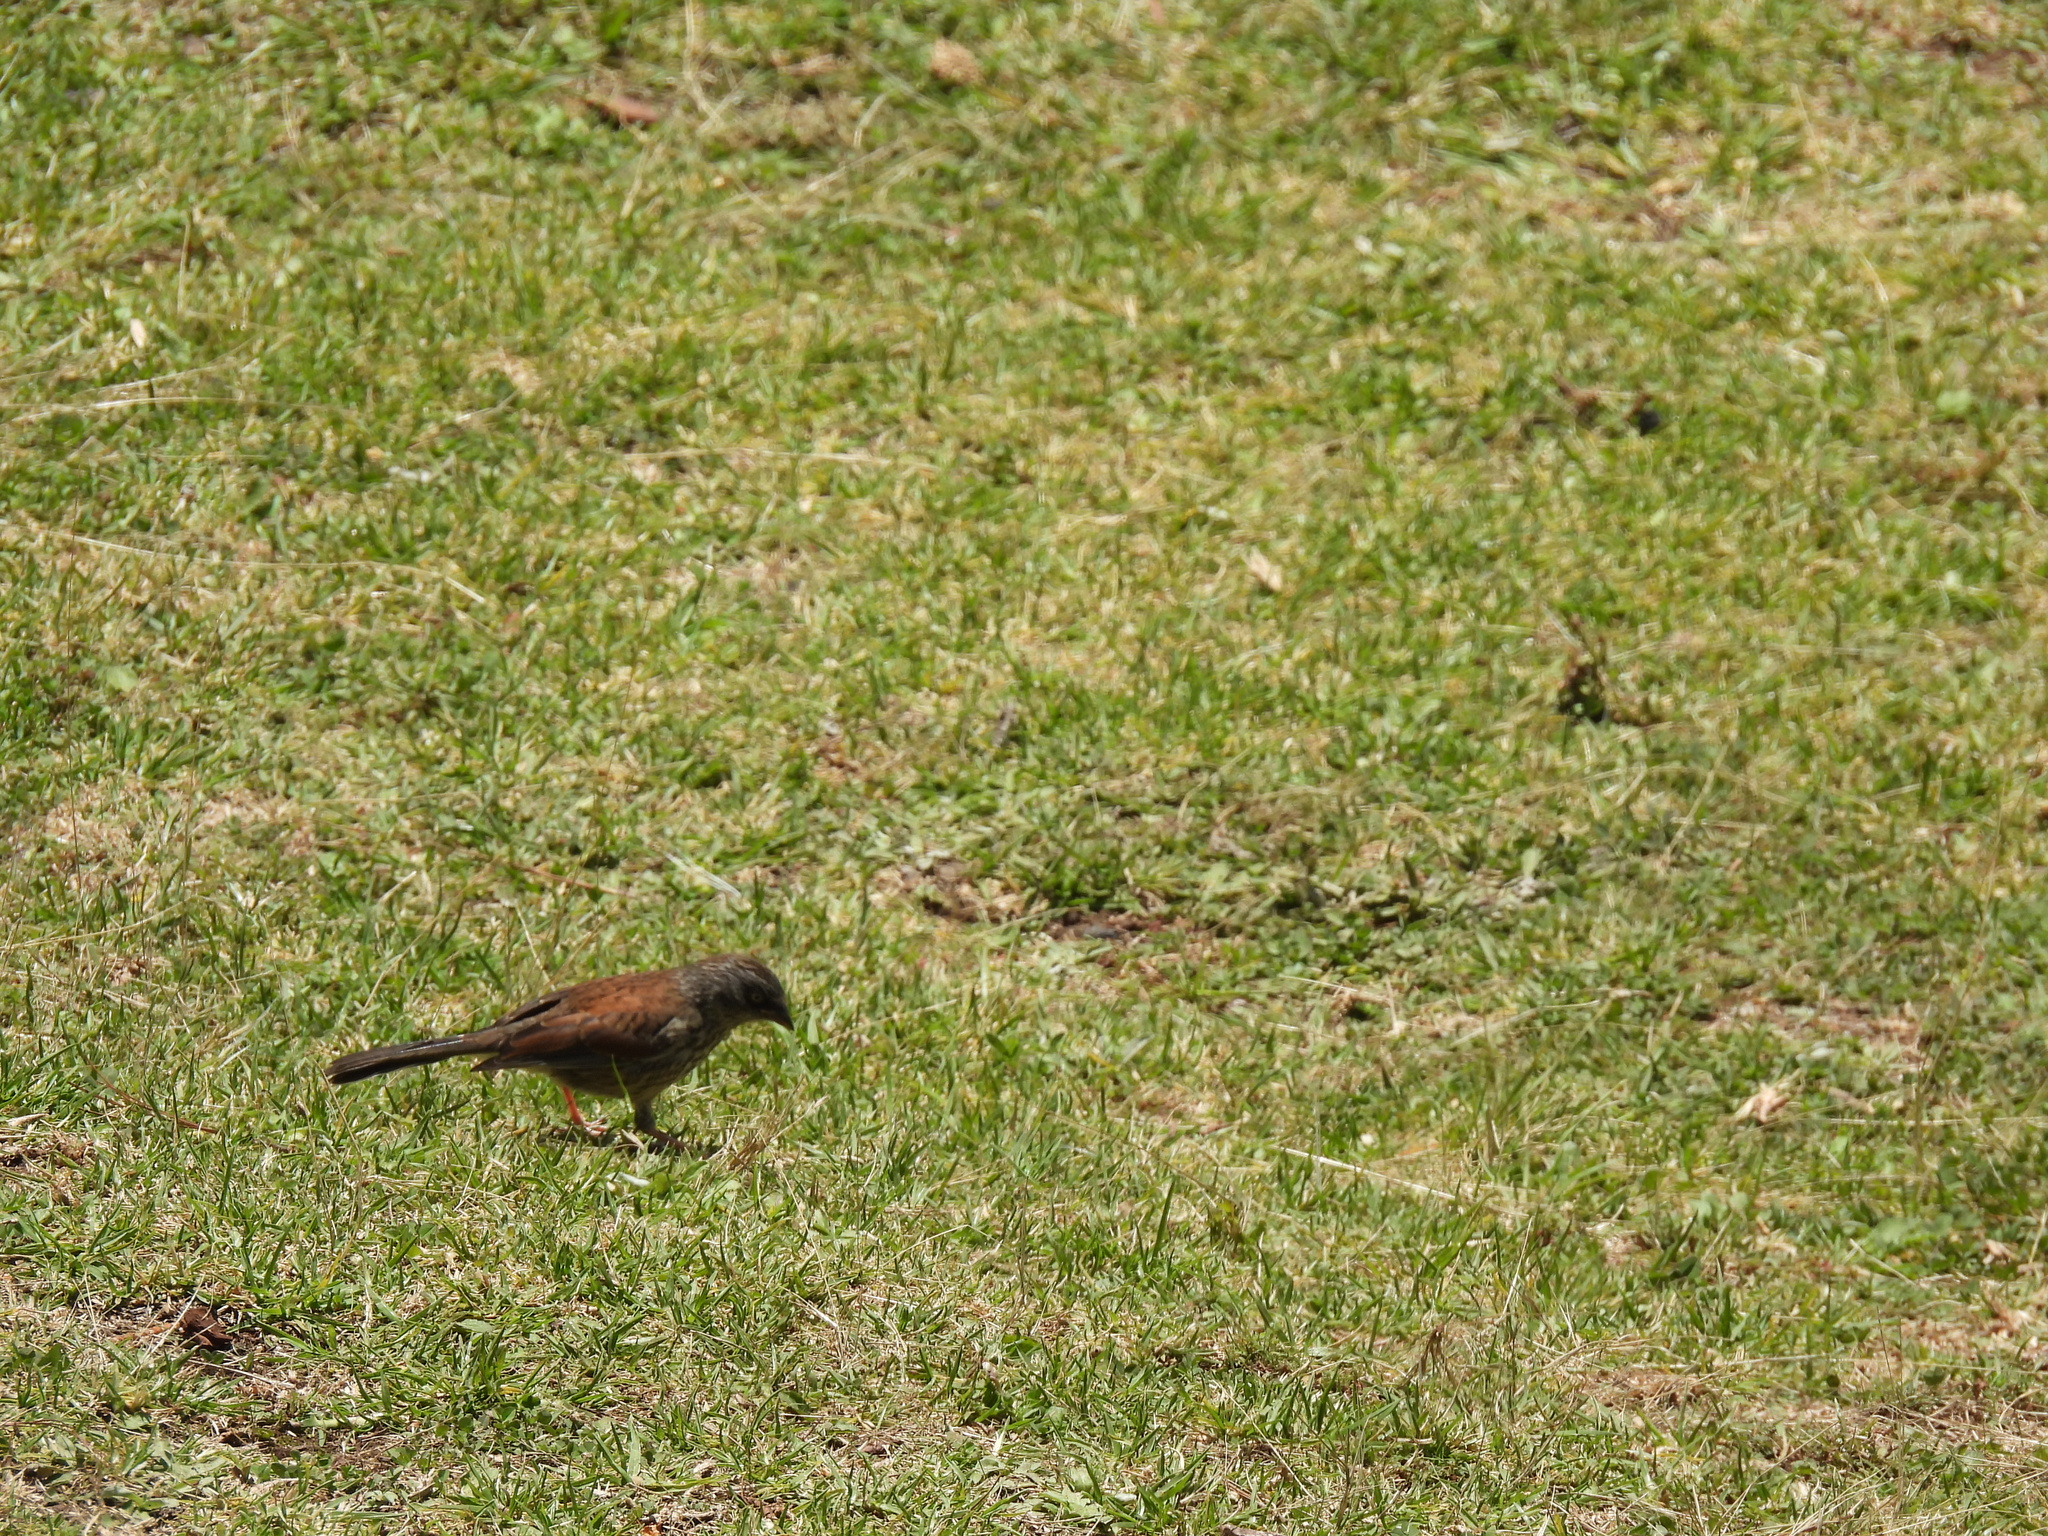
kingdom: Animalia
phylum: Chordata
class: Aves
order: Passeriformes
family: Passerellidae
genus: Junco
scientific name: Junco phaeonotus
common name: Yellow-eyed junco
